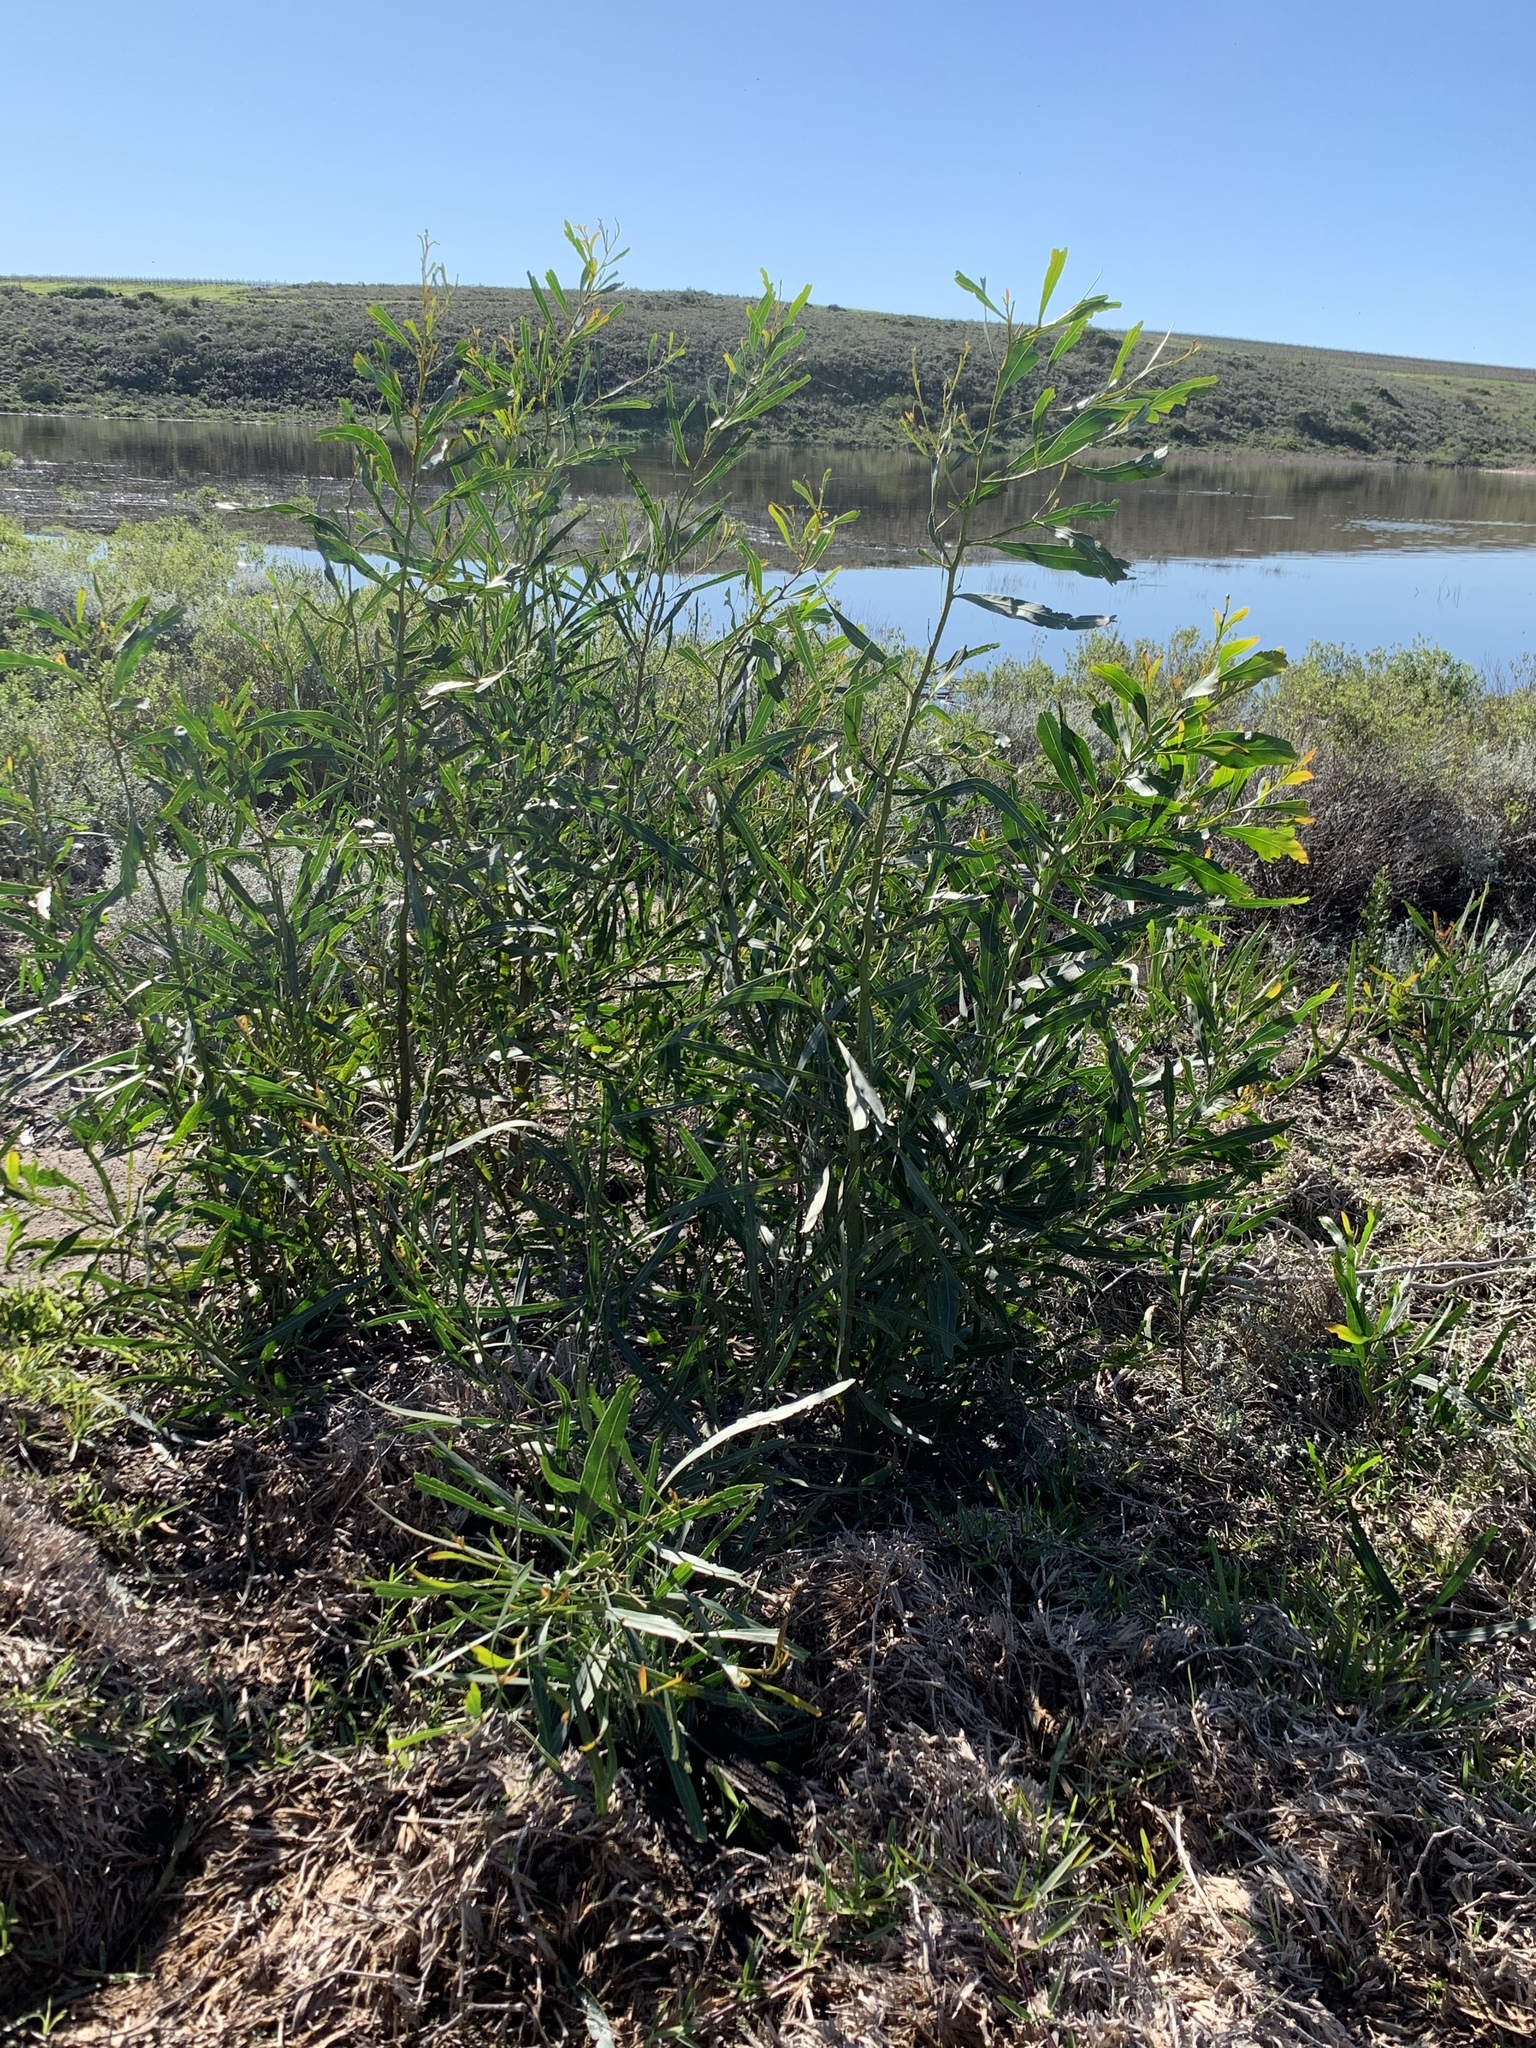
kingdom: Plantae
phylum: Tracheophyta
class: Magnoliopsida
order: Fabales
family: Fabaceae
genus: Acacia
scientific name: Acacia saligna
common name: Orange wattle
